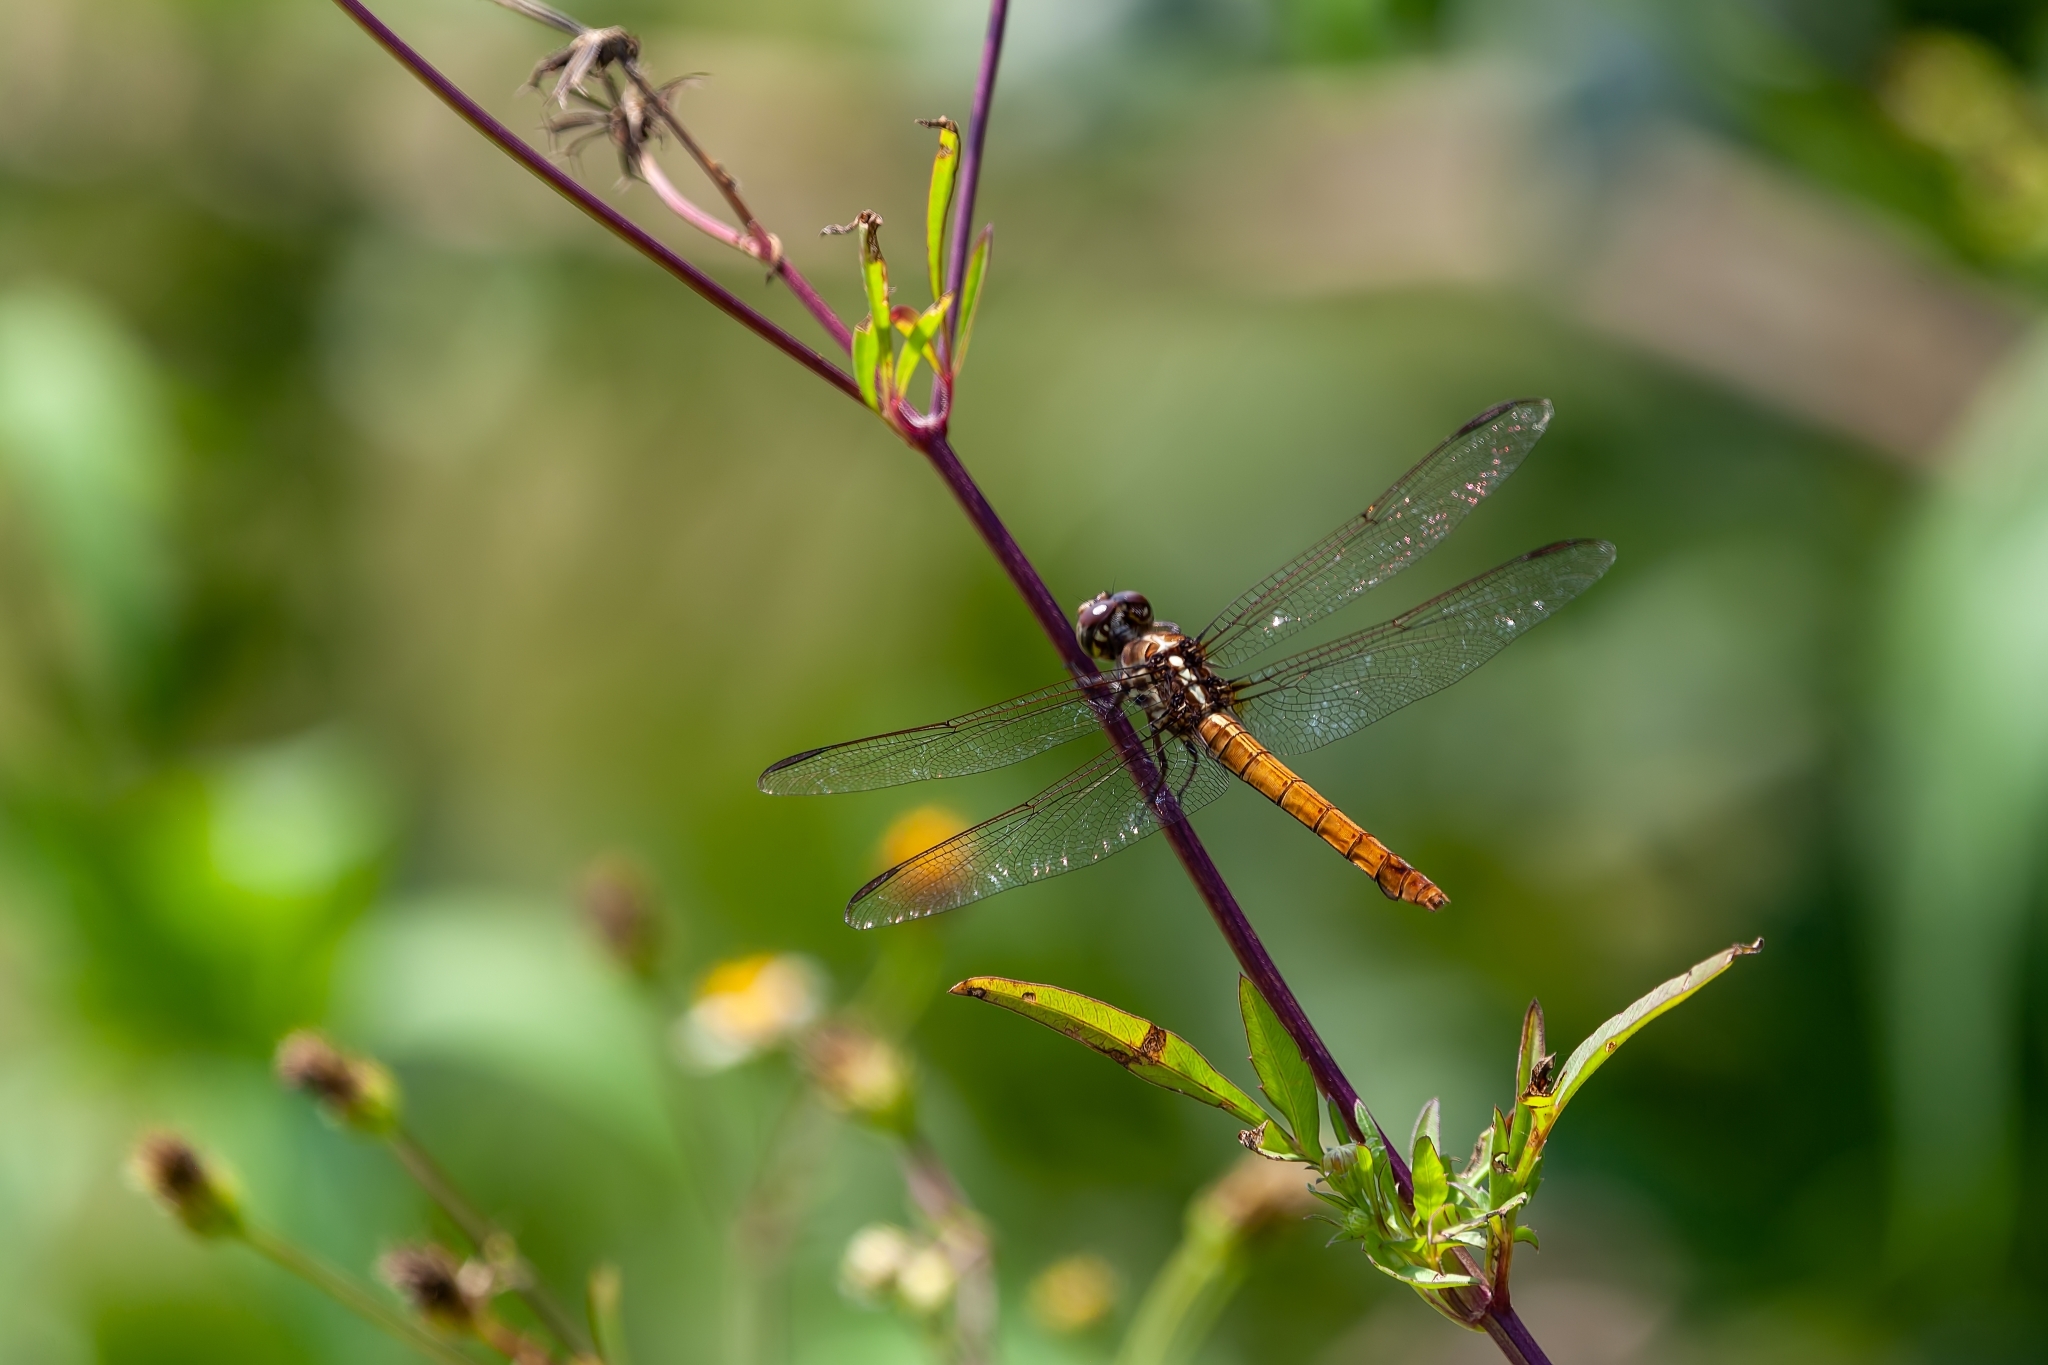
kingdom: Animalia
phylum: Arthropoda
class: Insecta
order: Odonata
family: Libellulidae
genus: Orthemis
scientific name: Orthemis ferruginea
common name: Roseate skimmer
